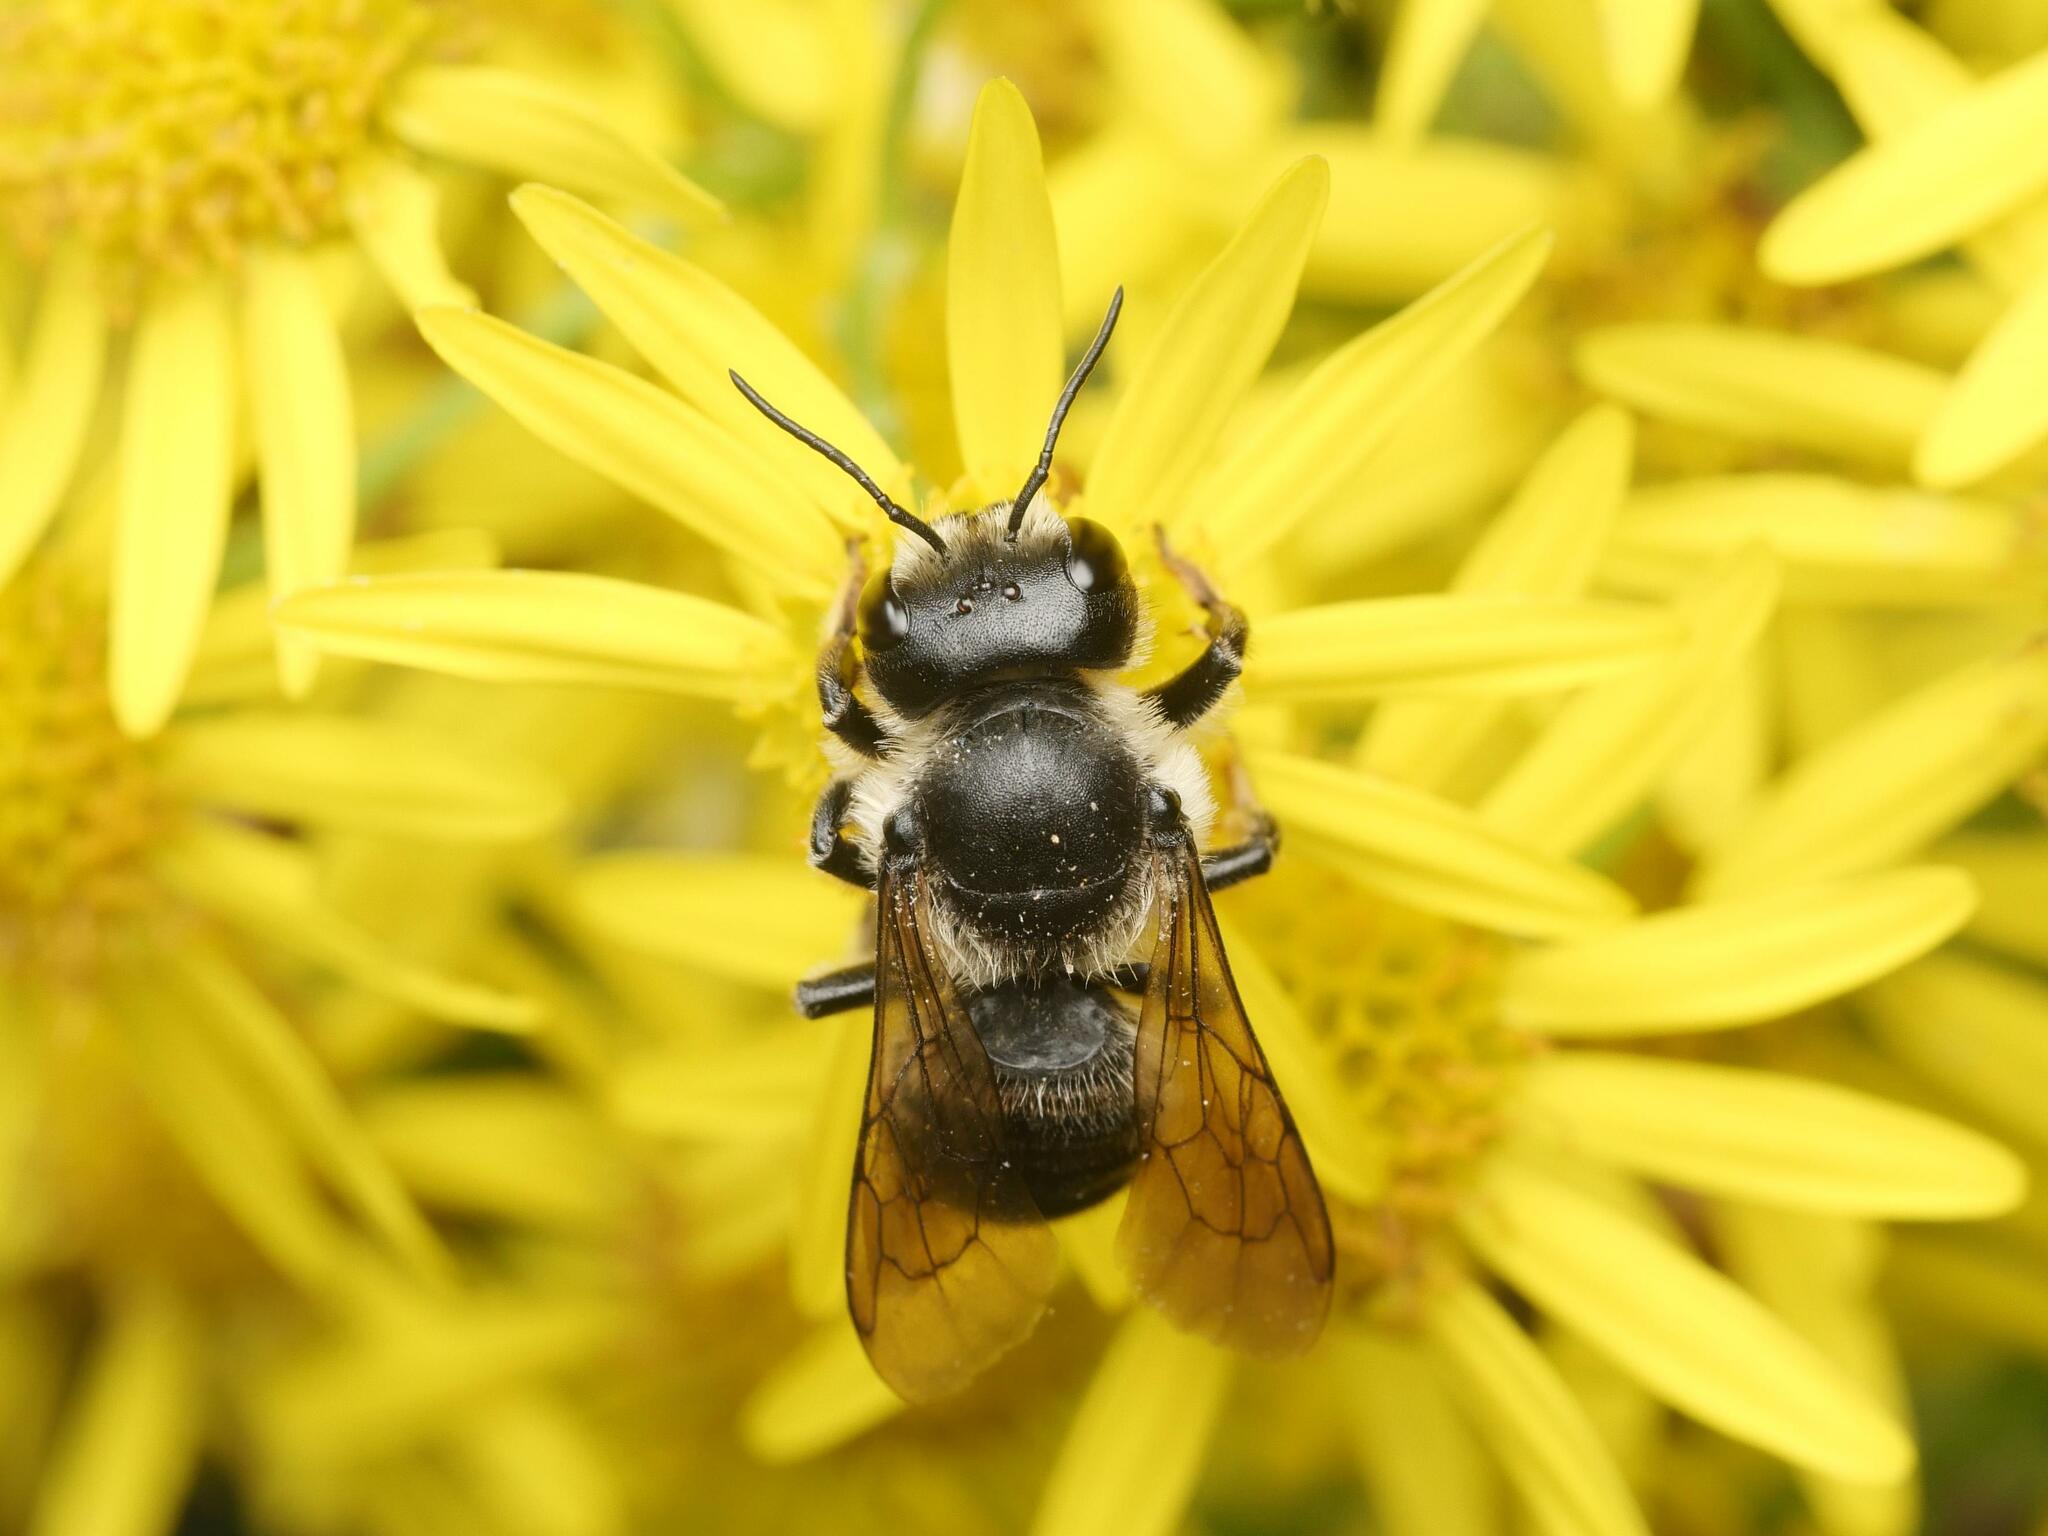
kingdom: Animalia
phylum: Arthropoda
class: Insecta
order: Hymenoptera
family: Megachilidae
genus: Megachile
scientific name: Megachile inermis
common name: Unarmed leafcutter bee
